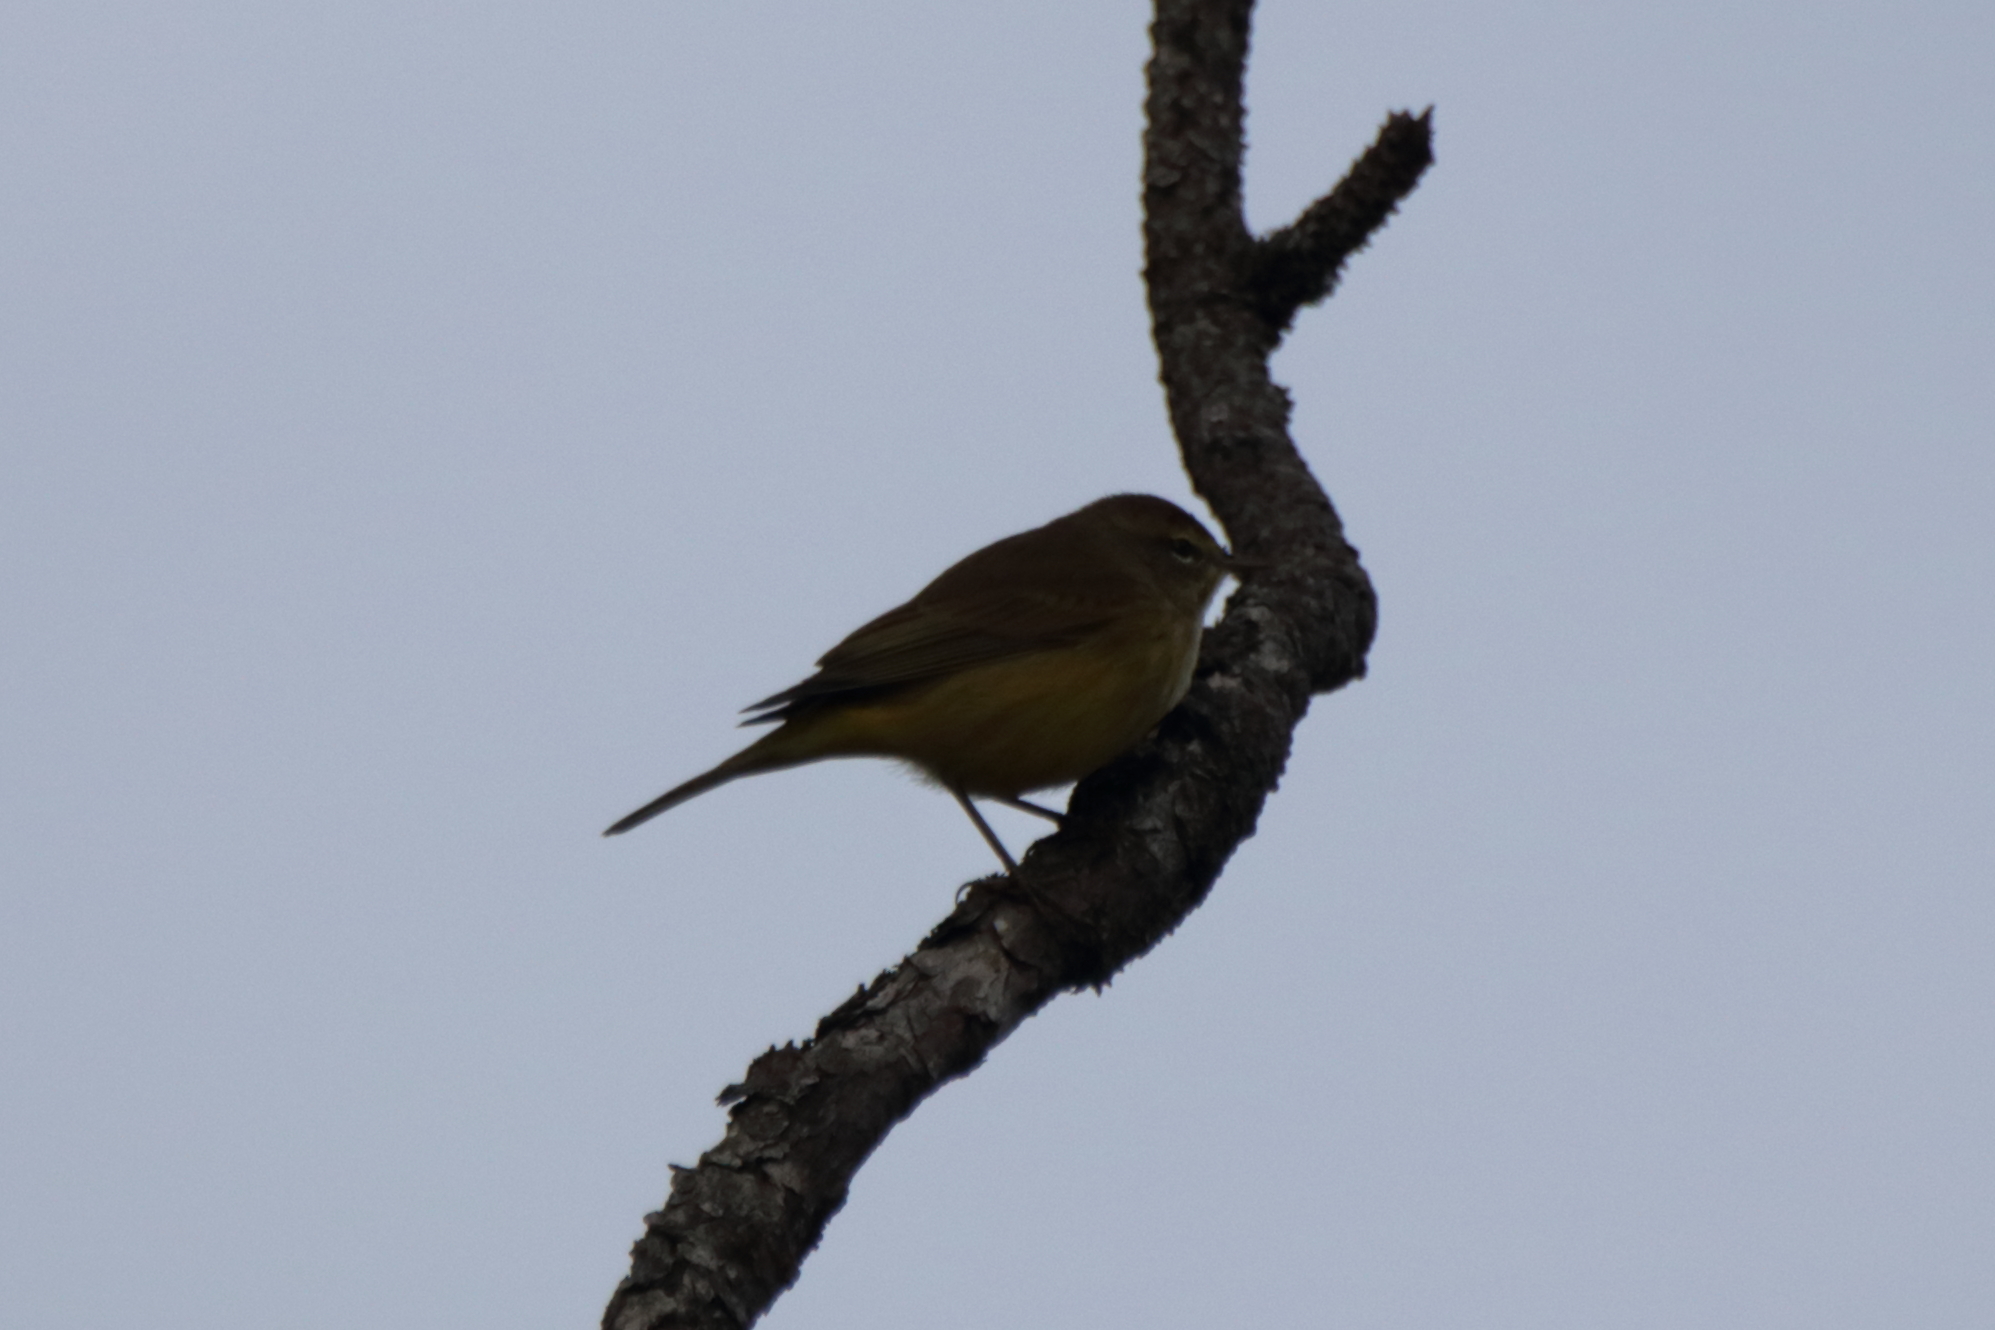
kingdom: Animalia
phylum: Chordata
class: Aves
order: Passeriformes
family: Parulidae
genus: Setophaga
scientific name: Setophaga palmarum
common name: Palm warbler
